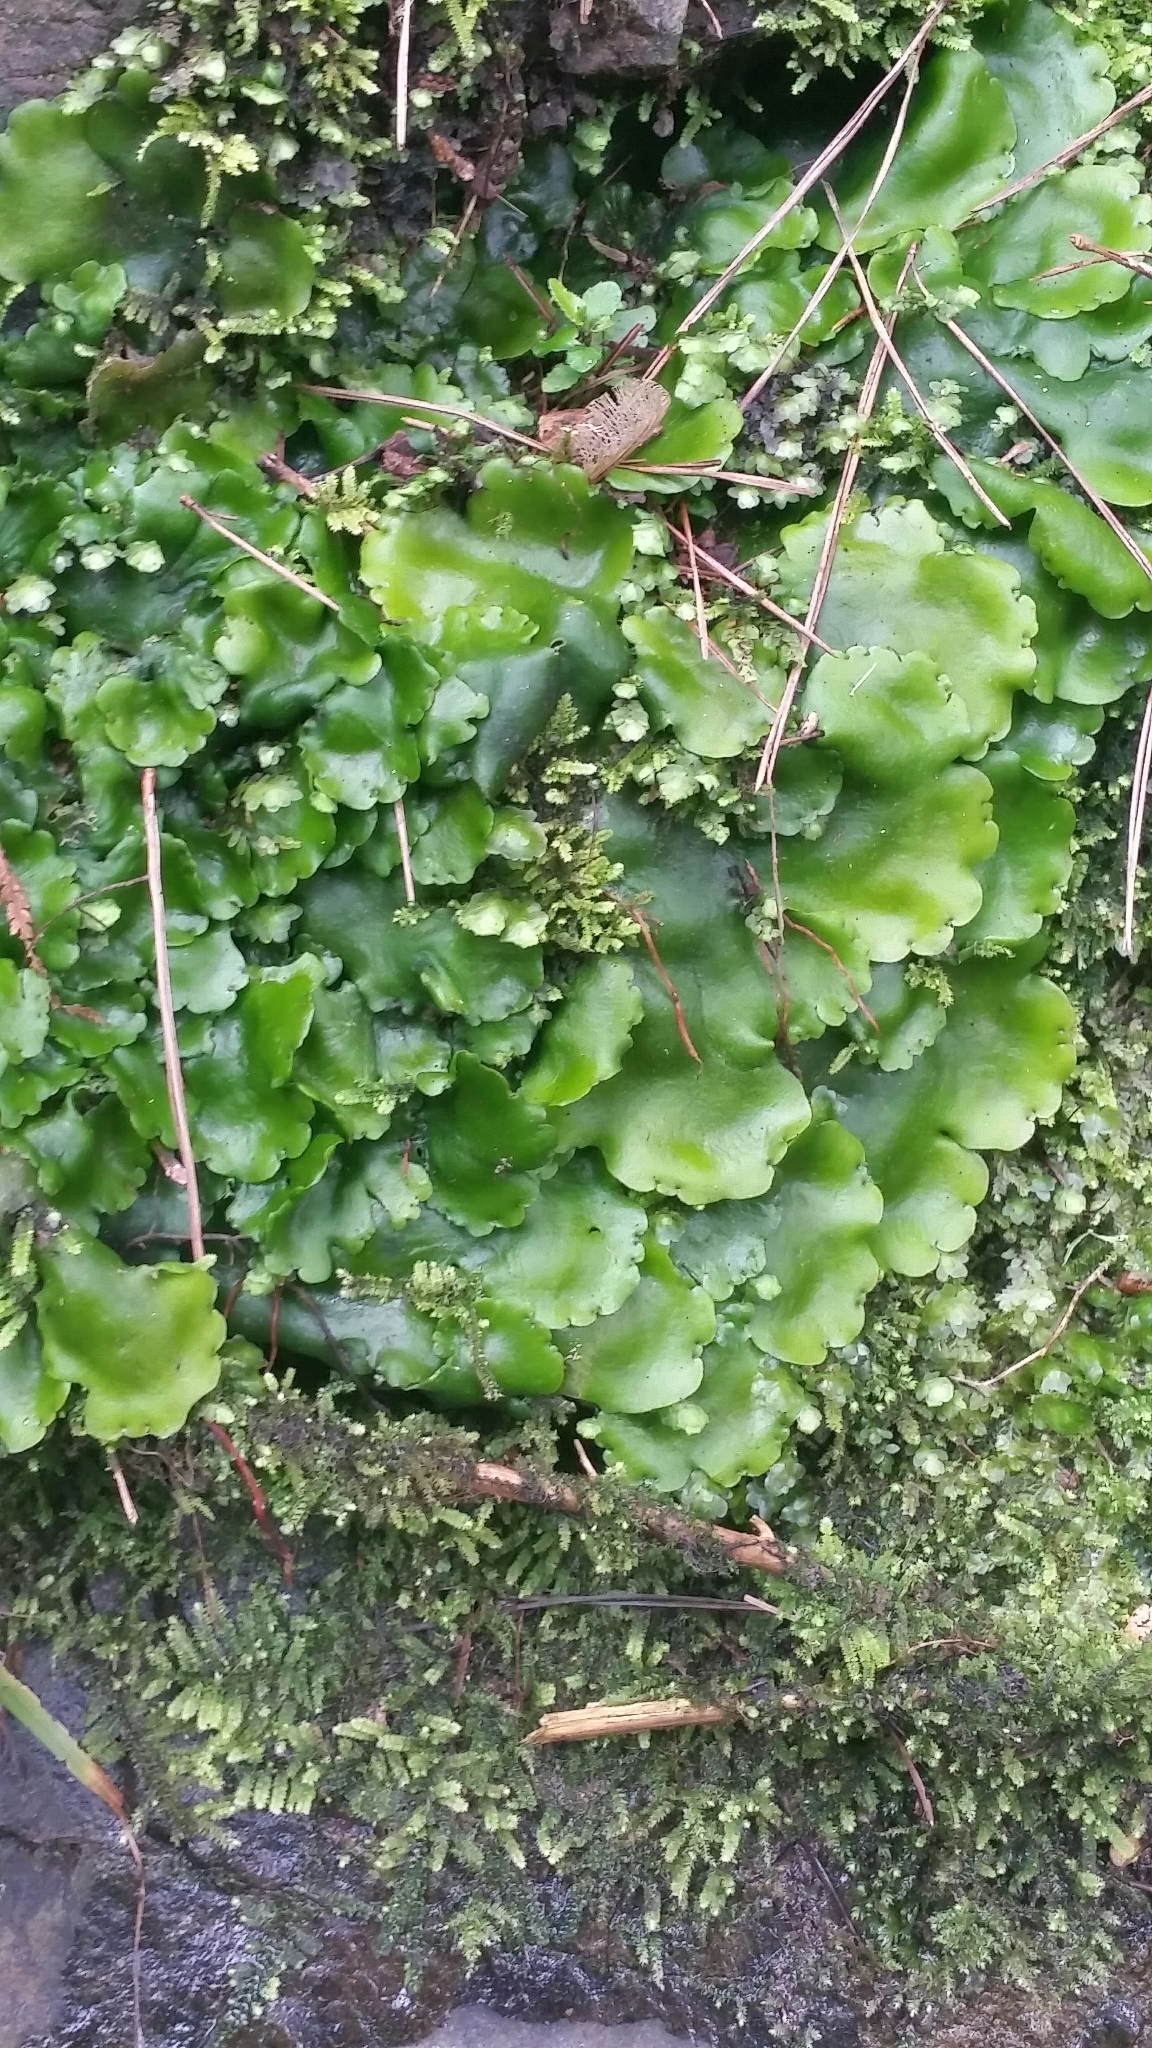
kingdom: Plantae
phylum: Marchantiophyta
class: Marchantiopsida
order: Marchantiales
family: Monocleaceae
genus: Monoclea
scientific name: Monoclea forsteri
